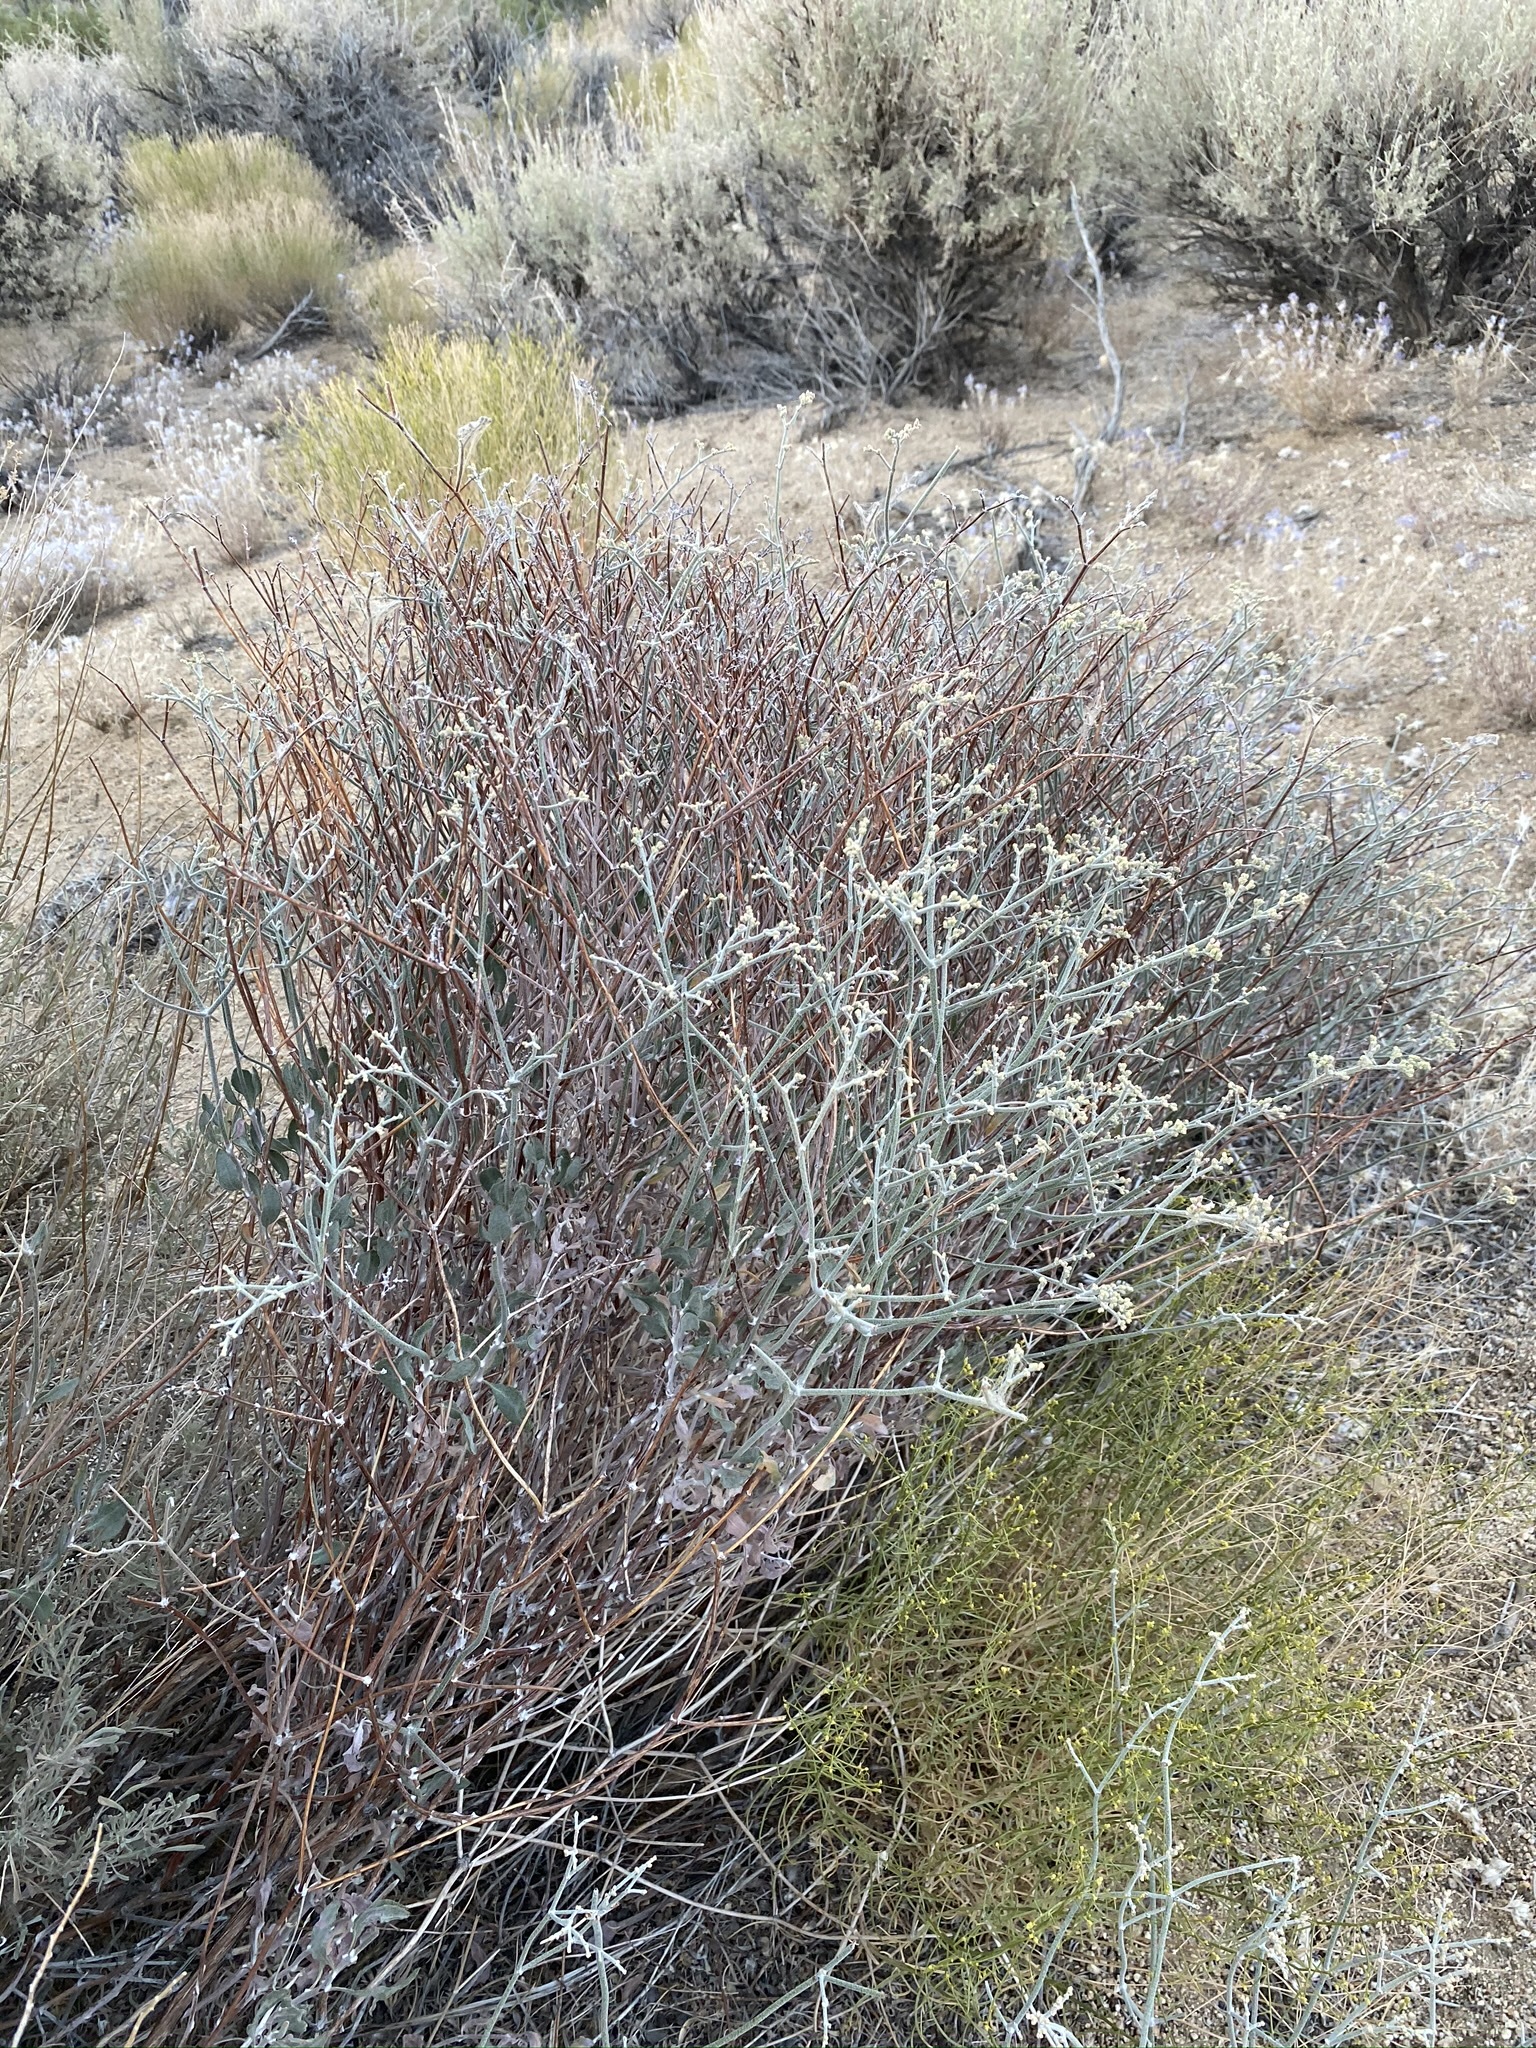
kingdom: Plantae
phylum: Tracheophyta
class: Magnoliopsida
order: Caryophyllales
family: Polygonaceae
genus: Eriogonum
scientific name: Eriogonum nummulare
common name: Kearney wild buckwheat
